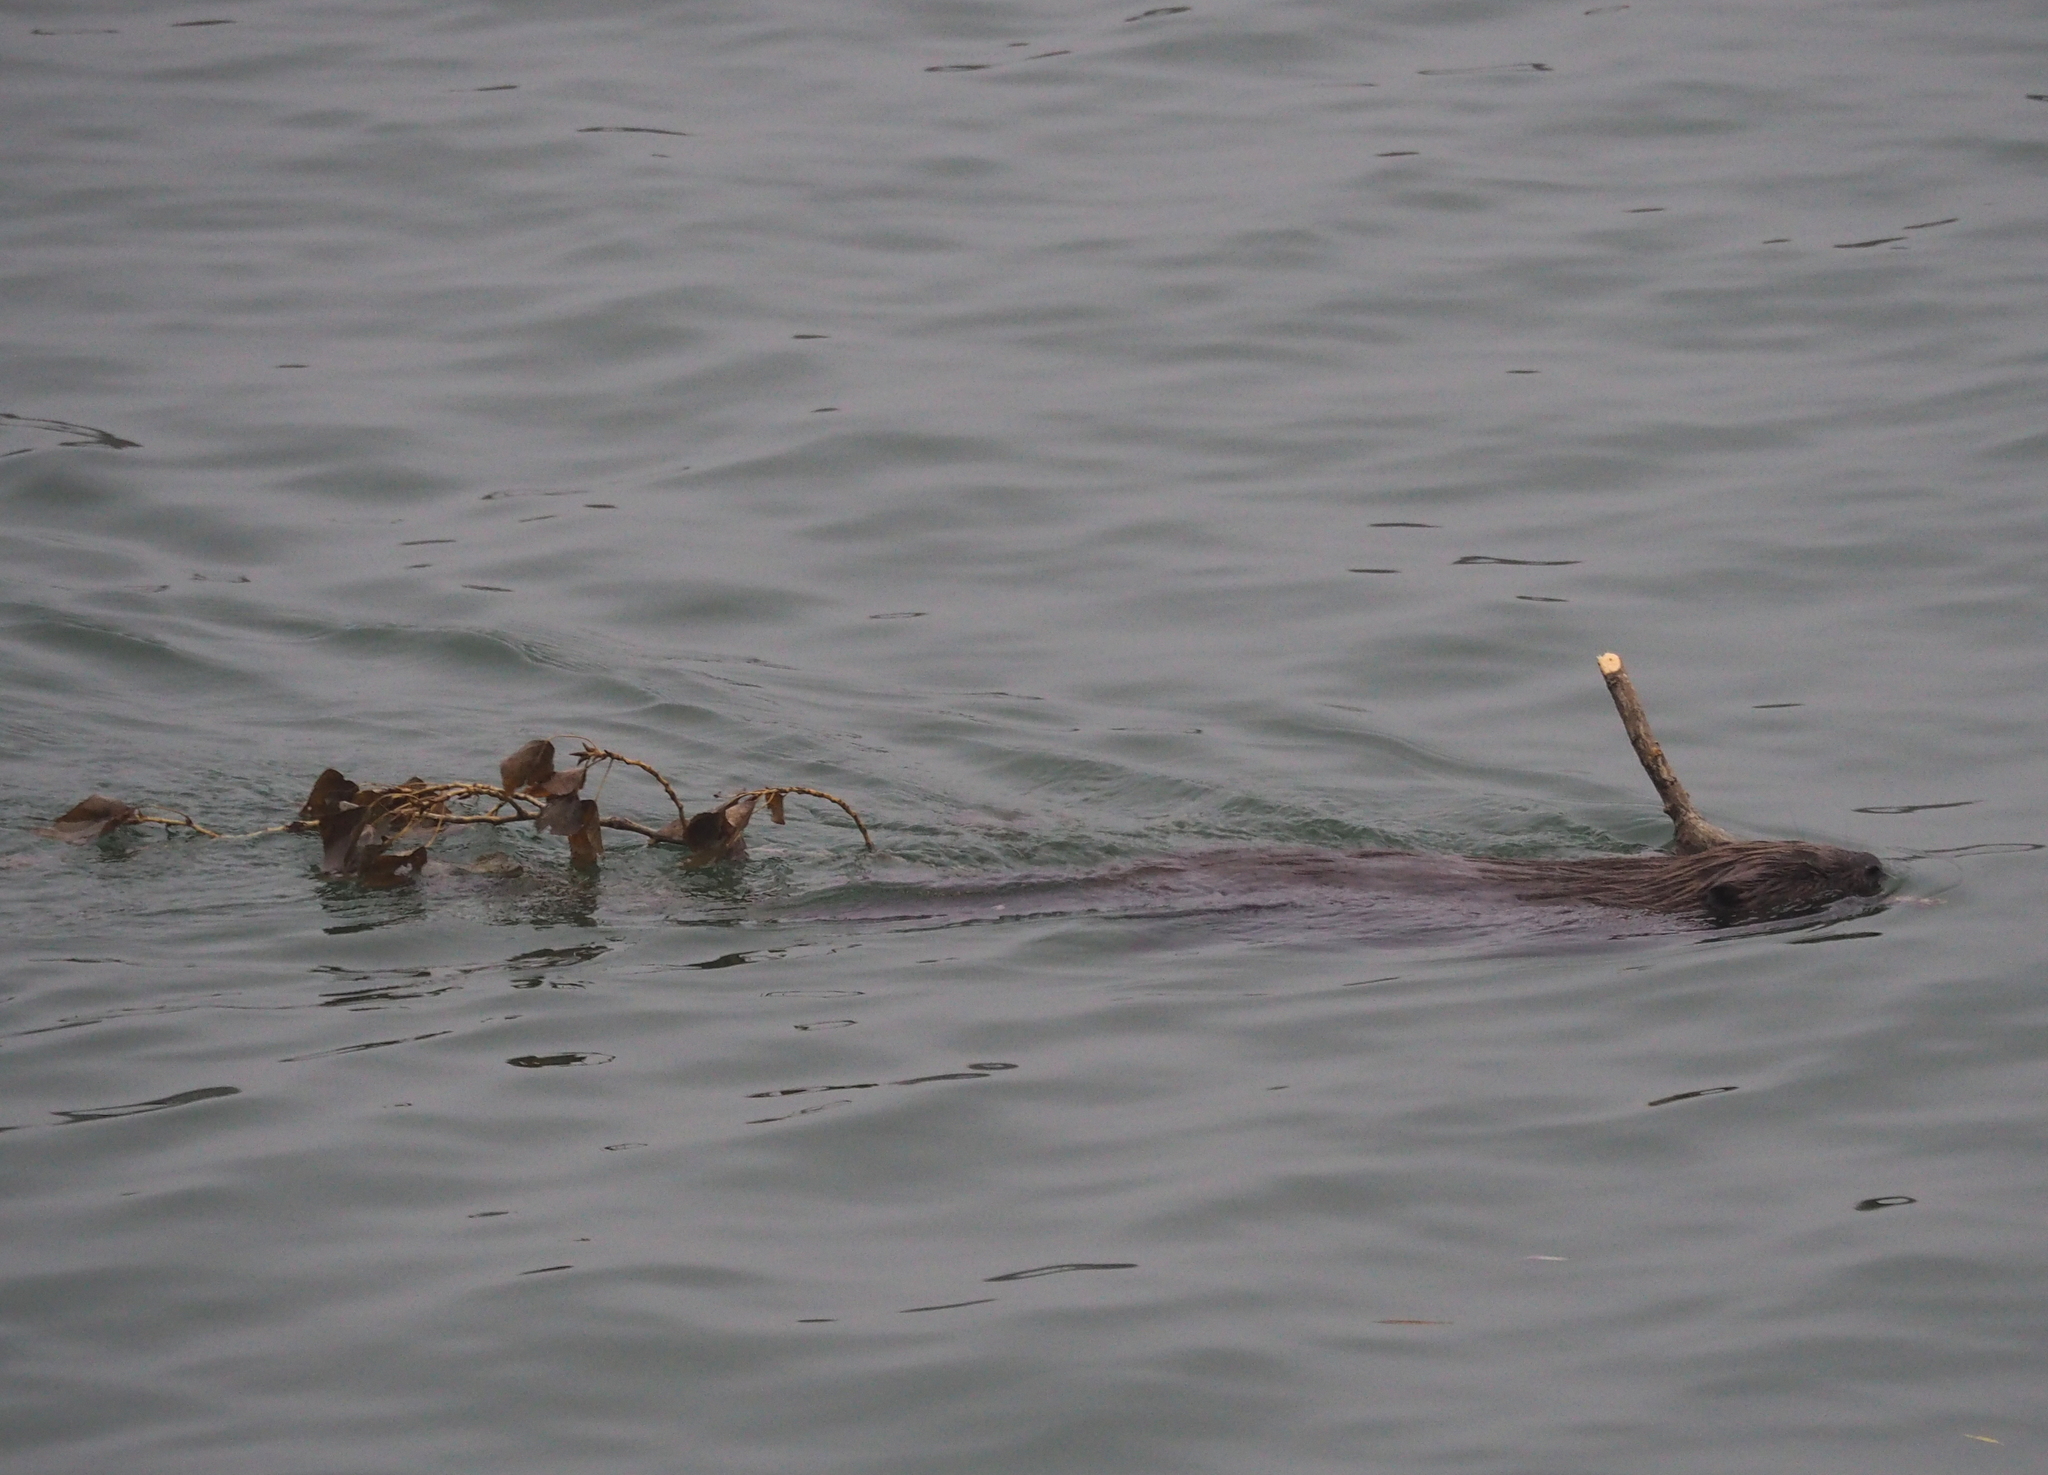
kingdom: Animalia
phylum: Chordata
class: Mammalia
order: Rodentia
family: Castoridae
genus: Castor
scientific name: Castor fiber
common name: Eurasian beaver
